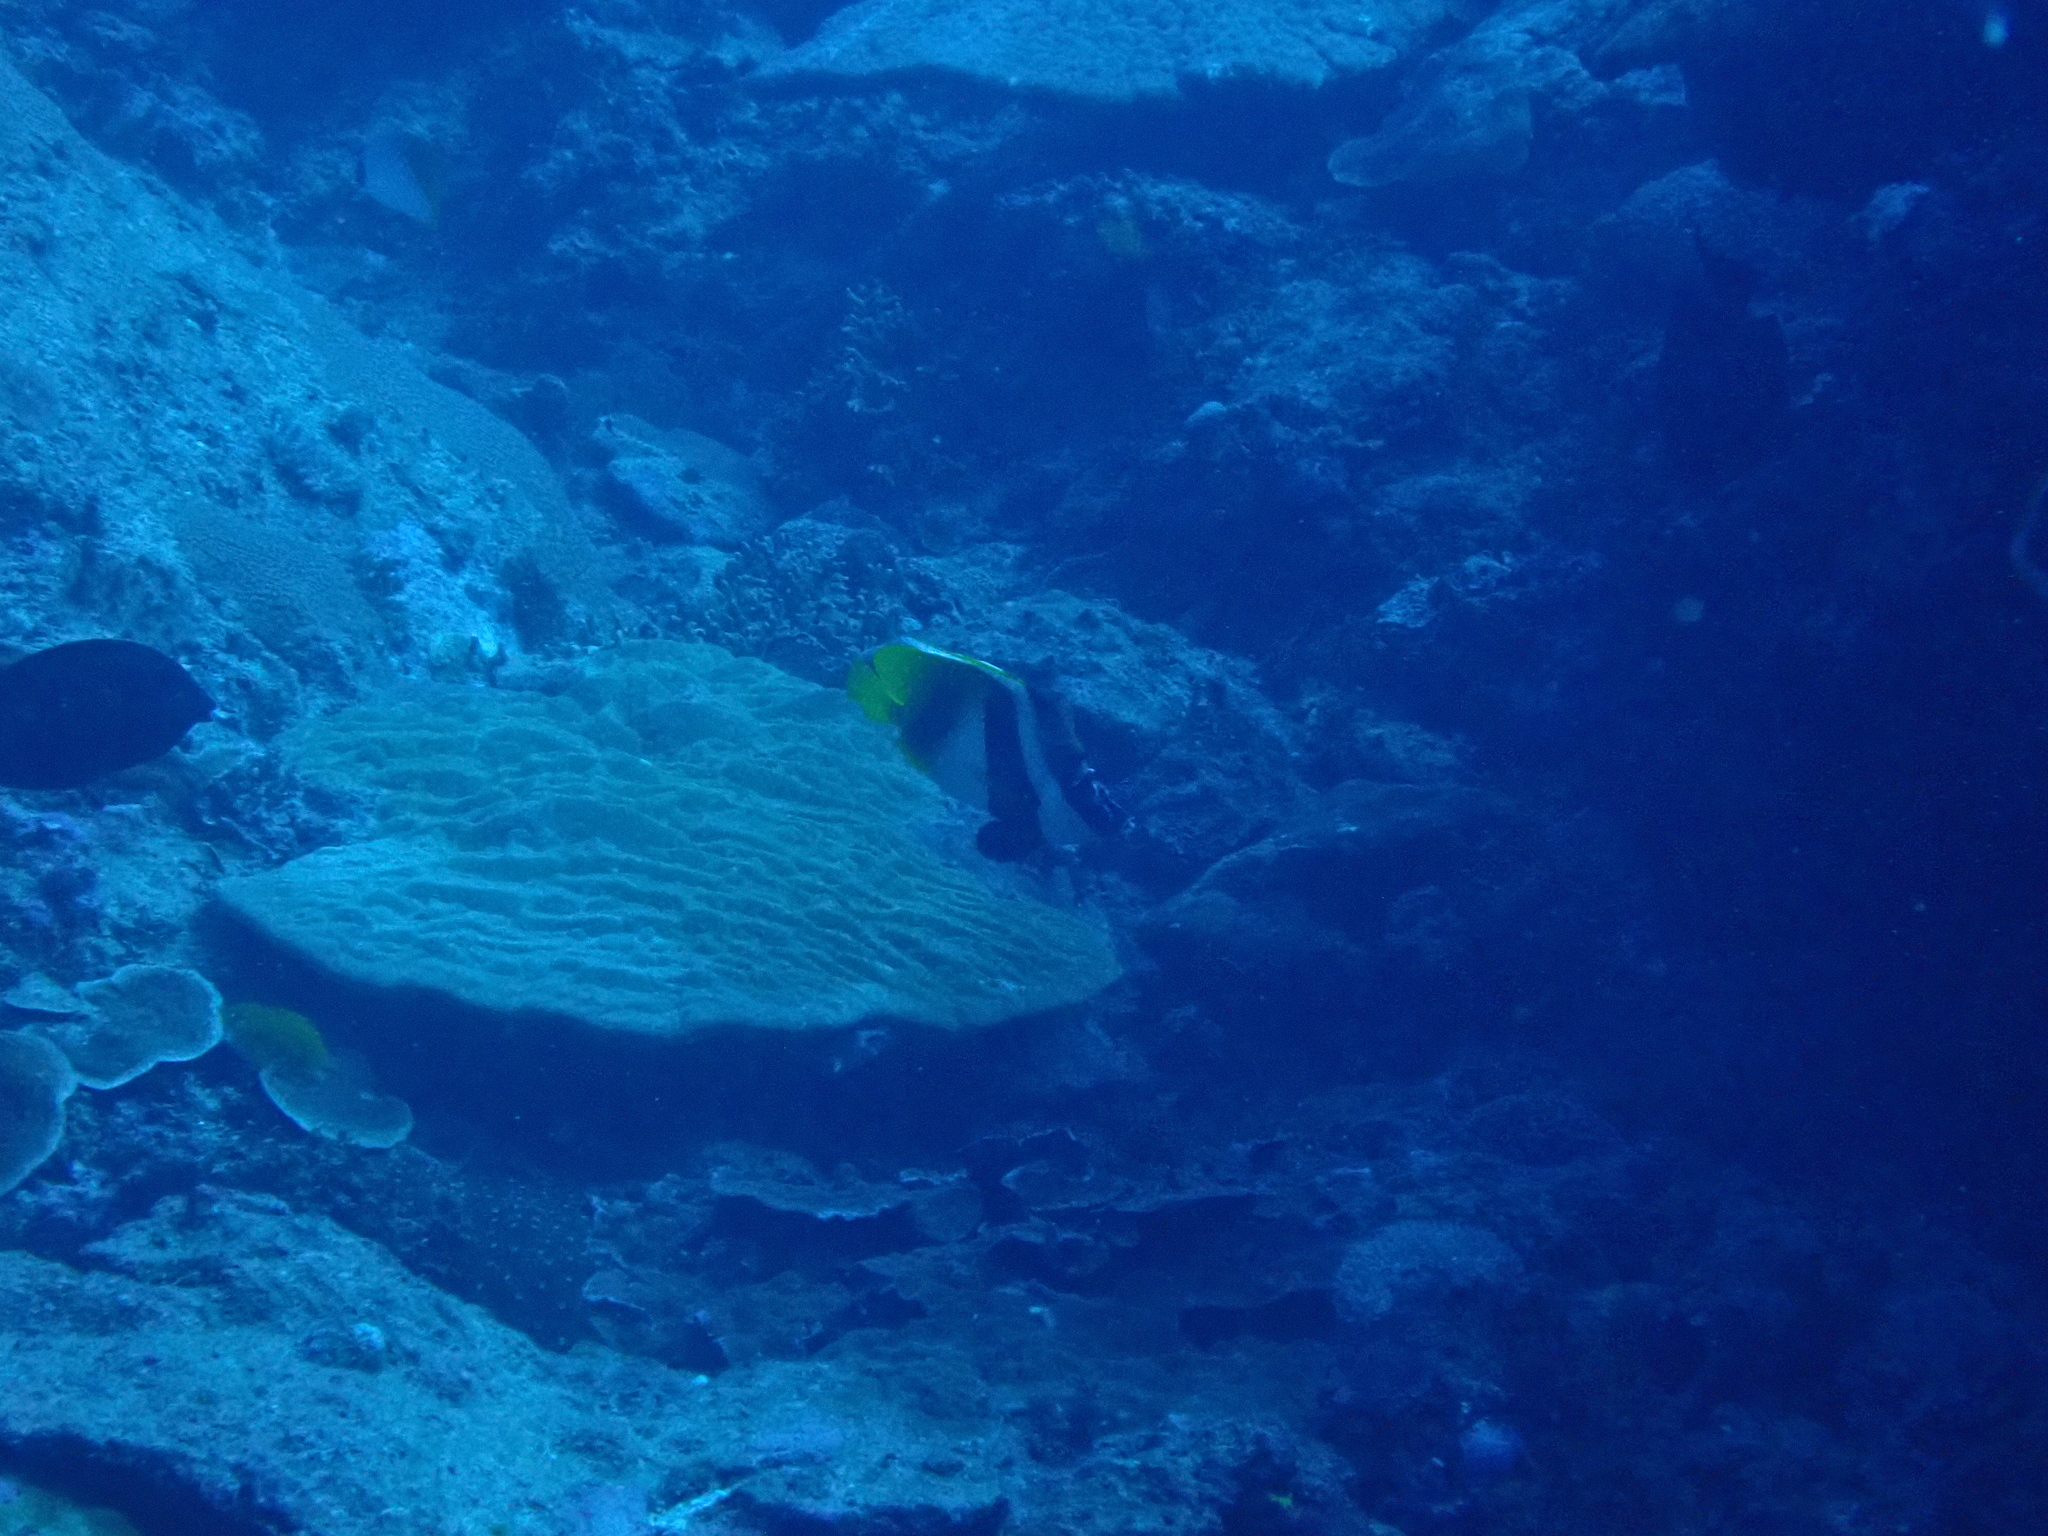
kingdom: Animalia
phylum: Chordata
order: Perciformes
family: Chaetodontidae
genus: Heniochus
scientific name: Heniochus monoceros
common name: Masked bannerfish
